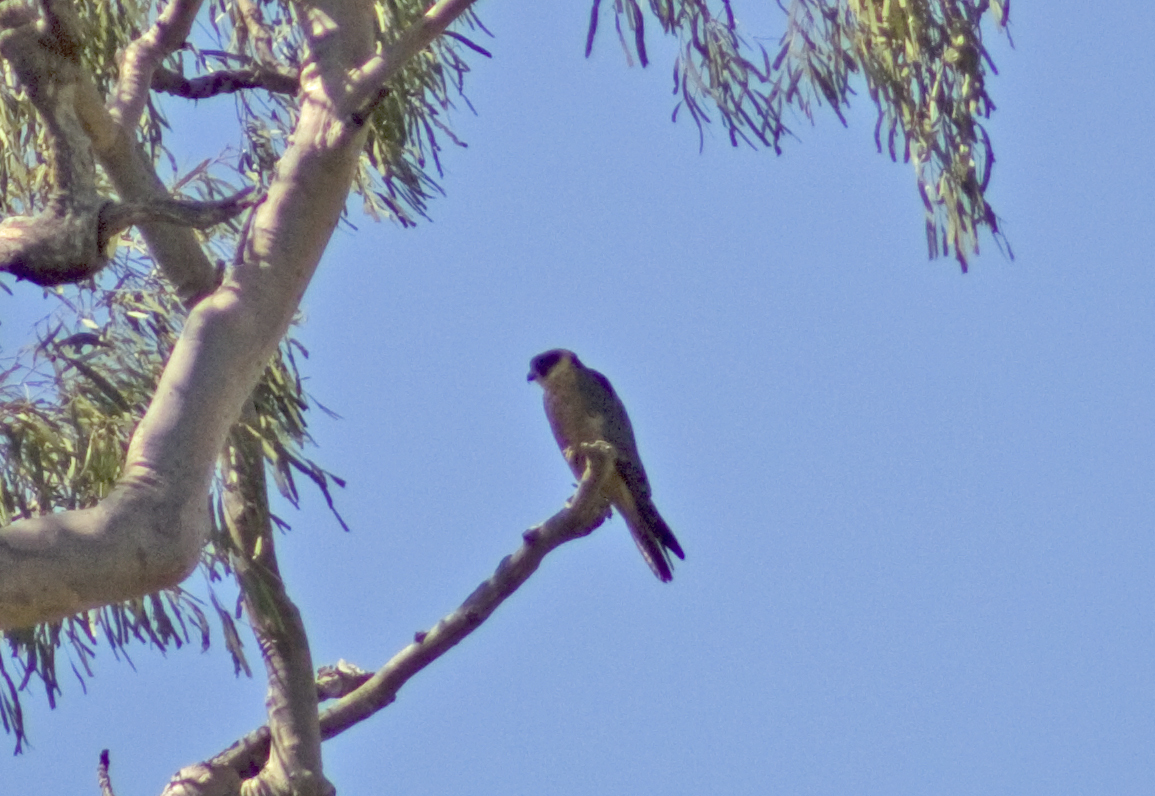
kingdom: Animalia
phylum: Chordata
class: Aves
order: Falconiformes
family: Falconidae
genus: Falco
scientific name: Falco longipennis
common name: Australian hobby
